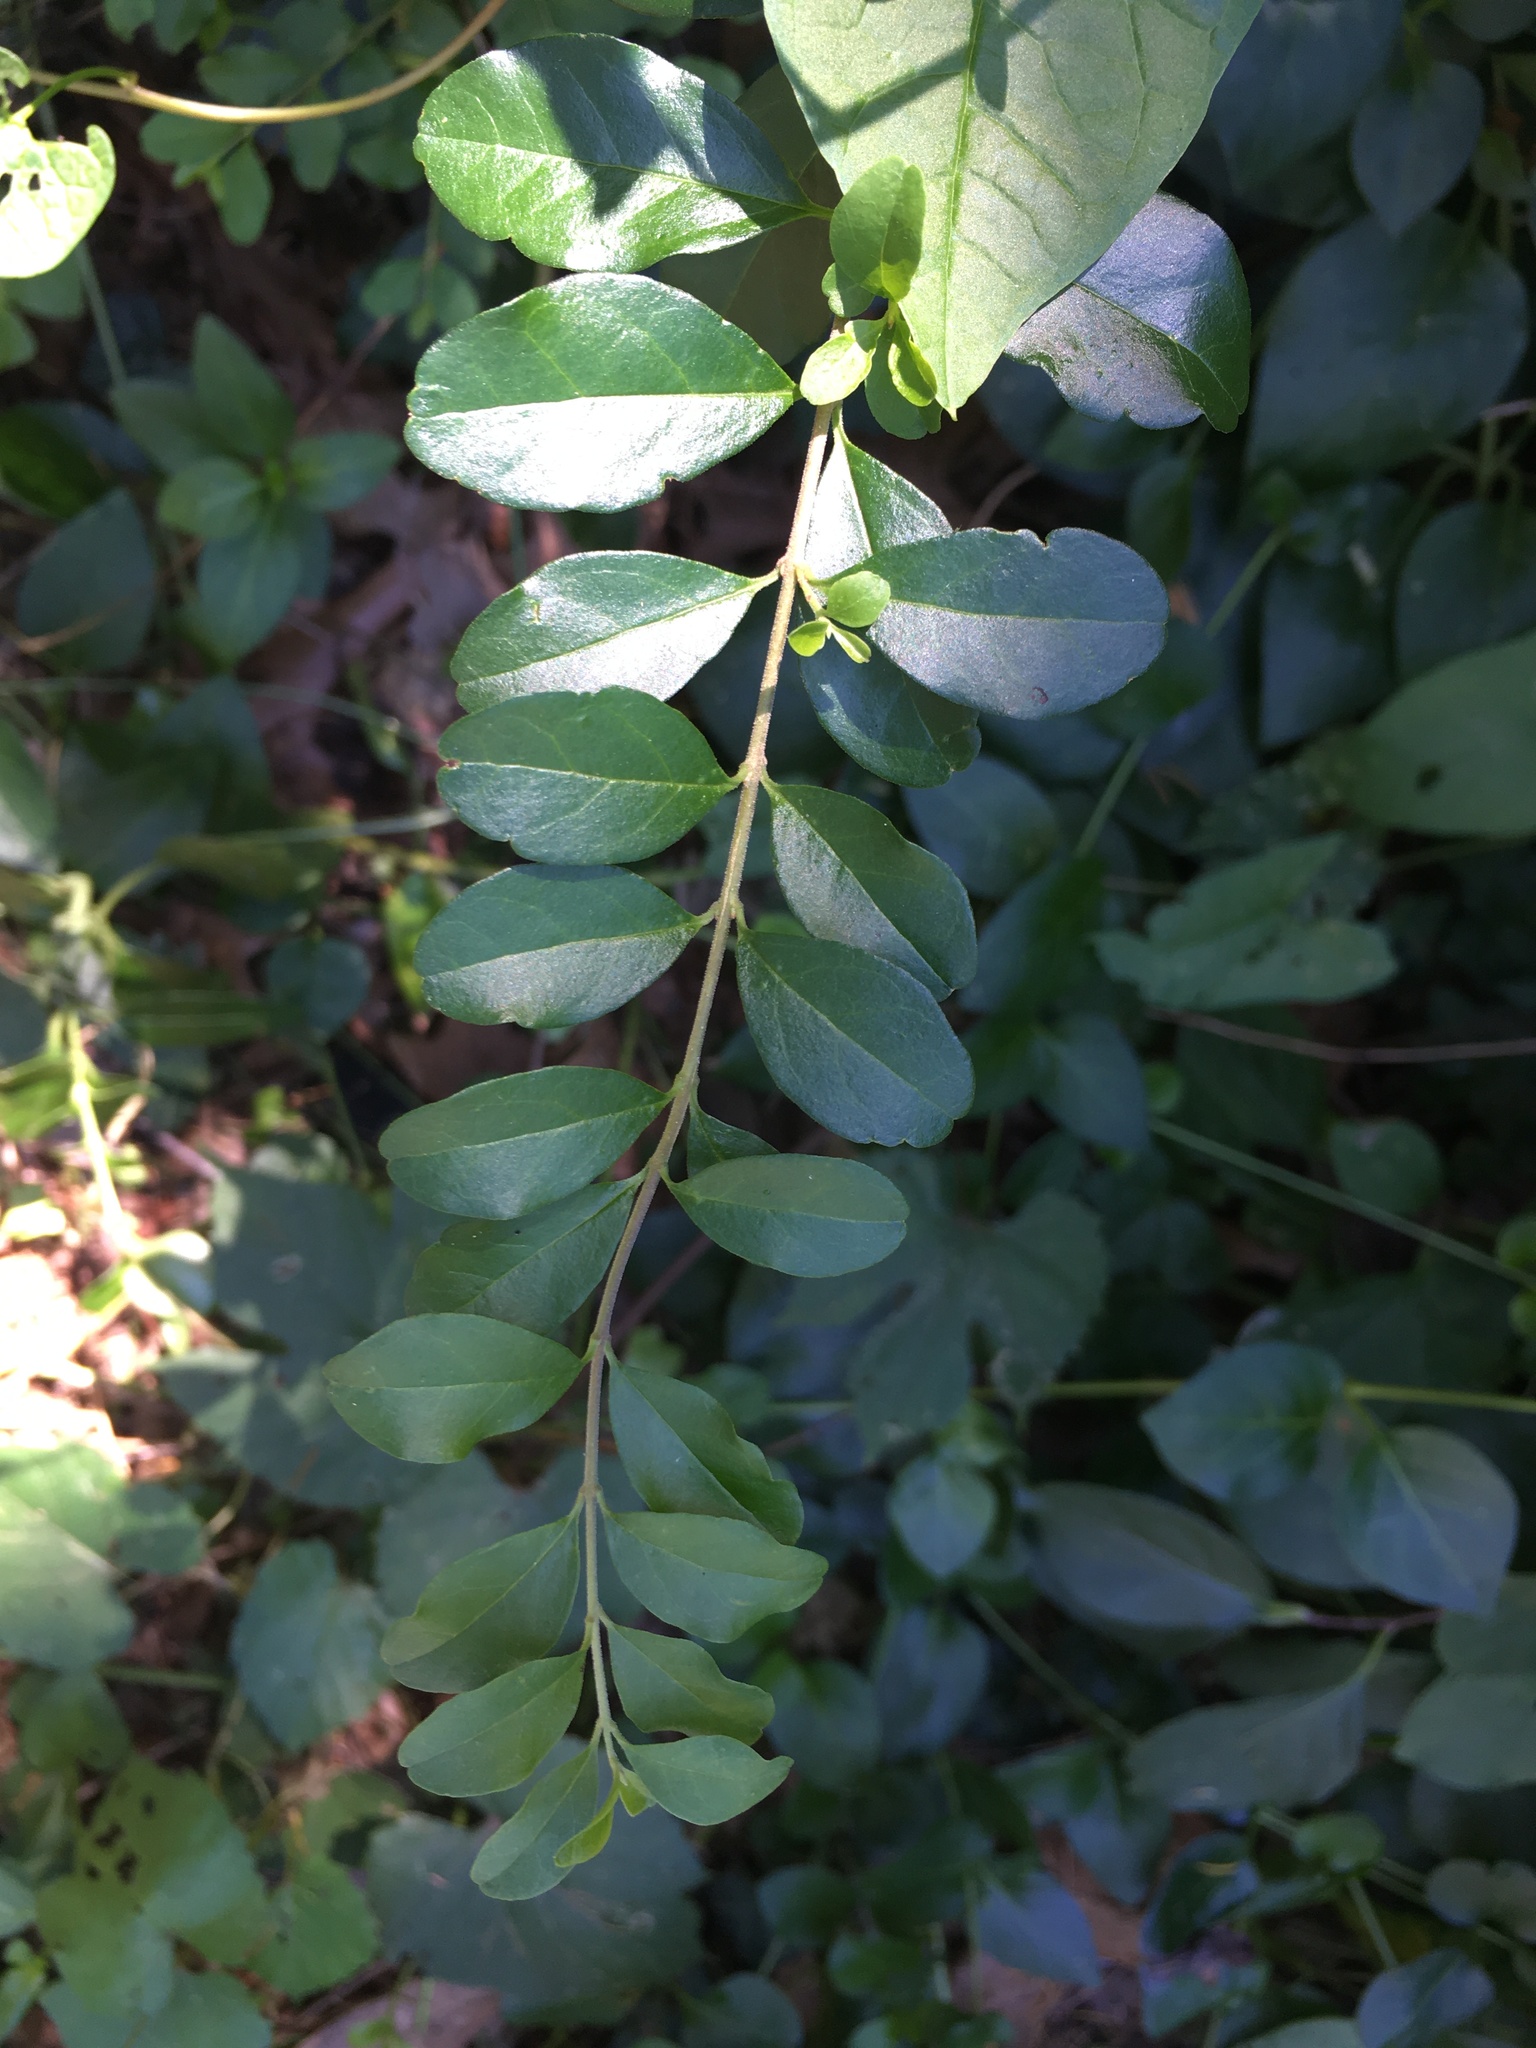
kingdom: Plantae
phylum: Tracheophyta
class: Magnoliopsida
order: Lamiales
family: Oleaceae
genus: Ligustrum
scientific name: Ligustrum sinense
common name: Chinese privet
